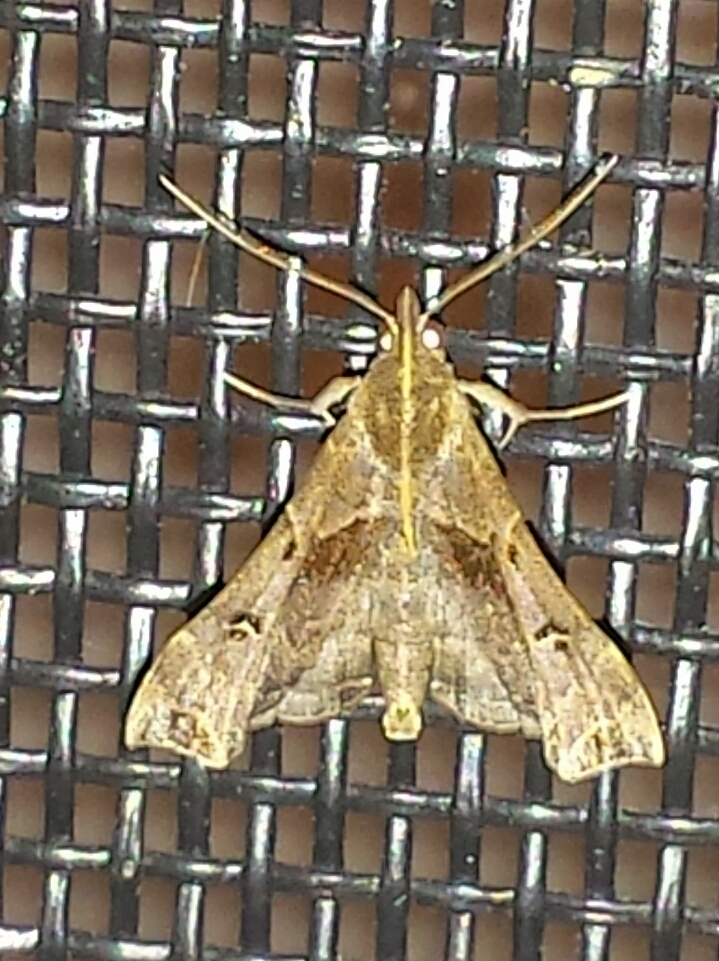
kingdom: Animalia
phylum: Arthropoda
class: Insecta
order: Lepidoptera
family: Erebidae
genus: Palthis
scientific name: Palthis asopialis
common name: Faint-spotted palthis moth
